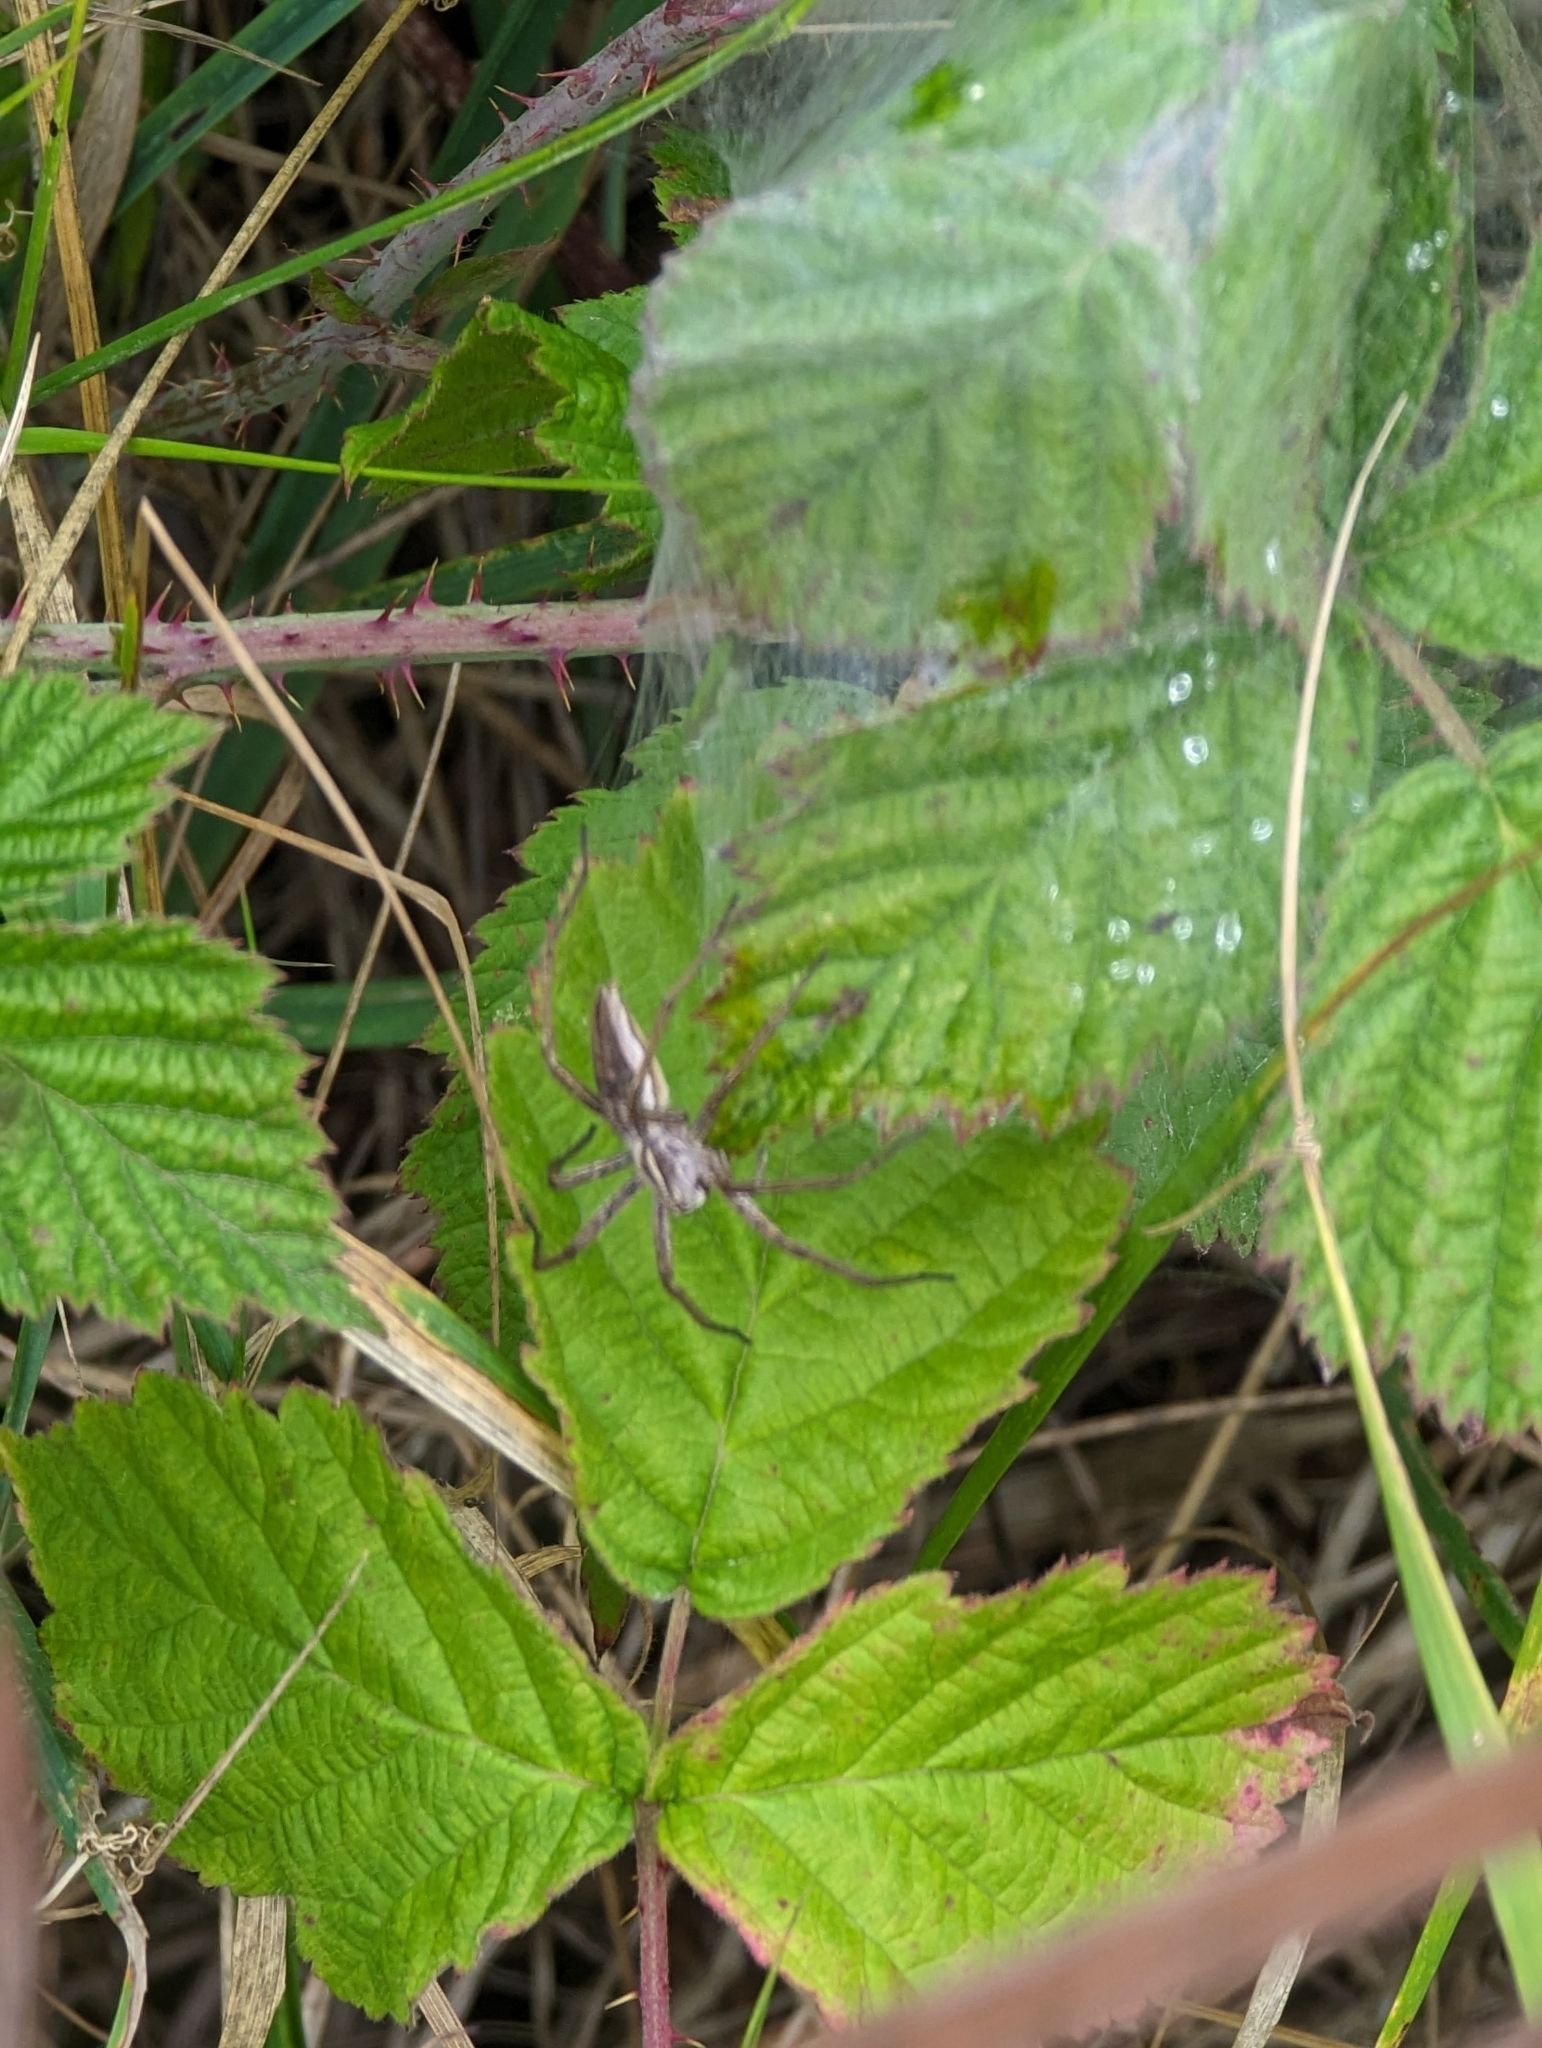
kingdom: Animalia
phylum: Arthropoda
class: Arachnida
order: Araneae
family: Pisauridae
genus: Pisaura
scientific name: Pisaura mirabilis
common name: Tent spider
